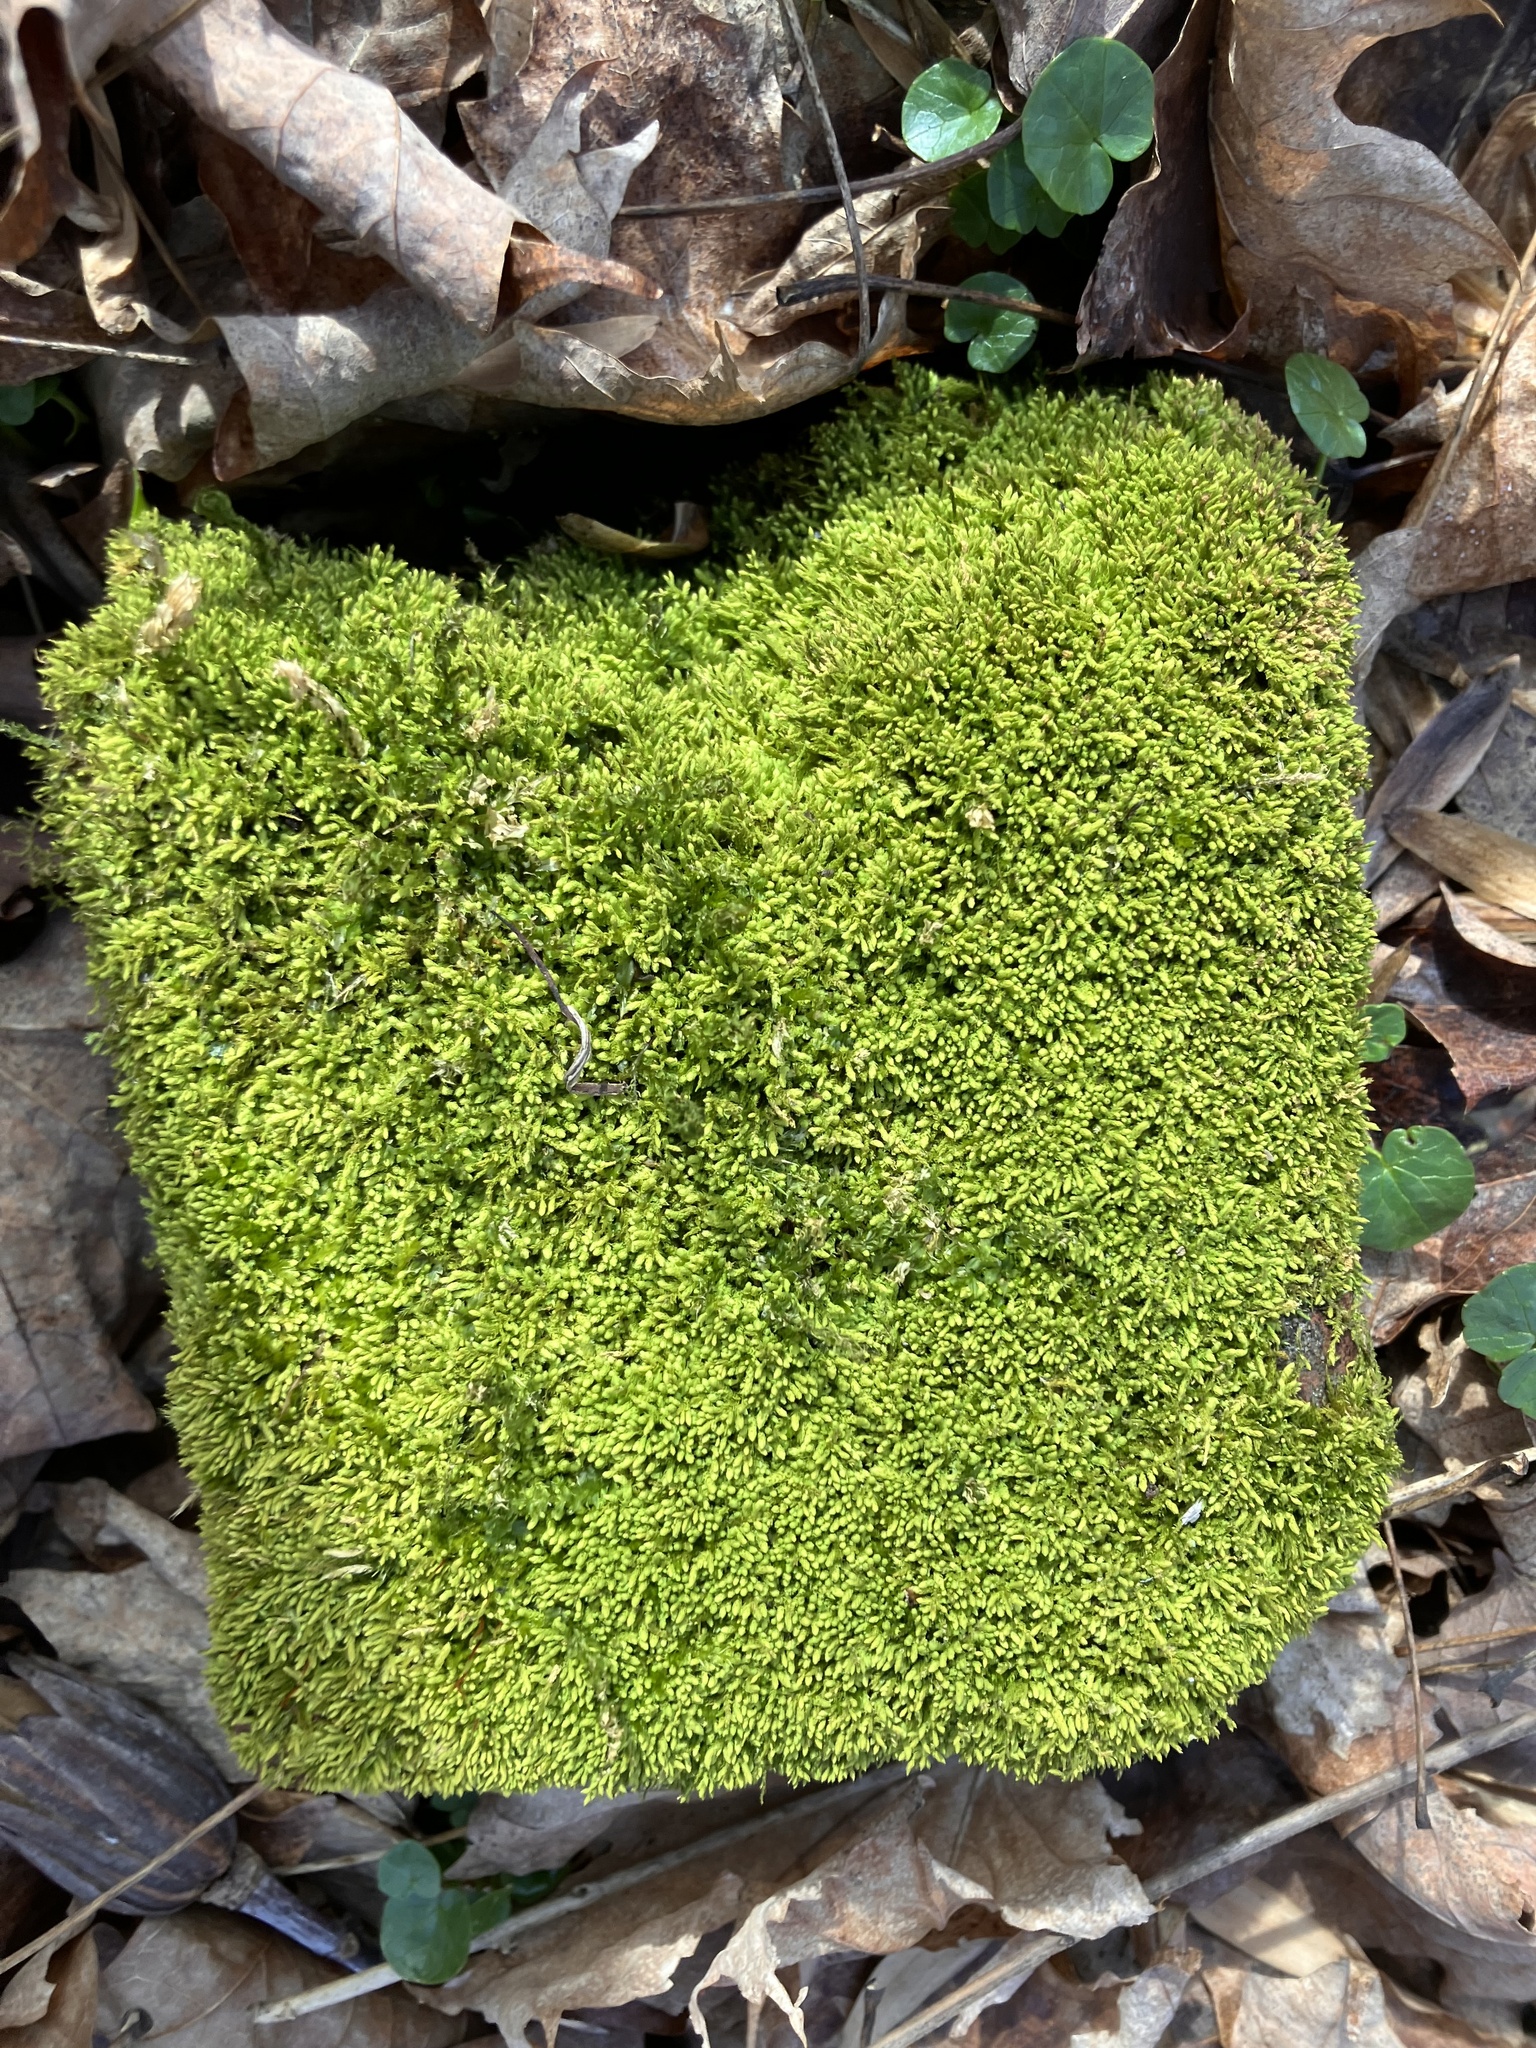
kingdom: Plantae
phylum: Bryophyta
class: Bryopsida
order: Hypnales
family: Brachytheciaceae
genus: Claopodium
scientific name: Claopodium rostratum
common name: Yellow yarn moss
